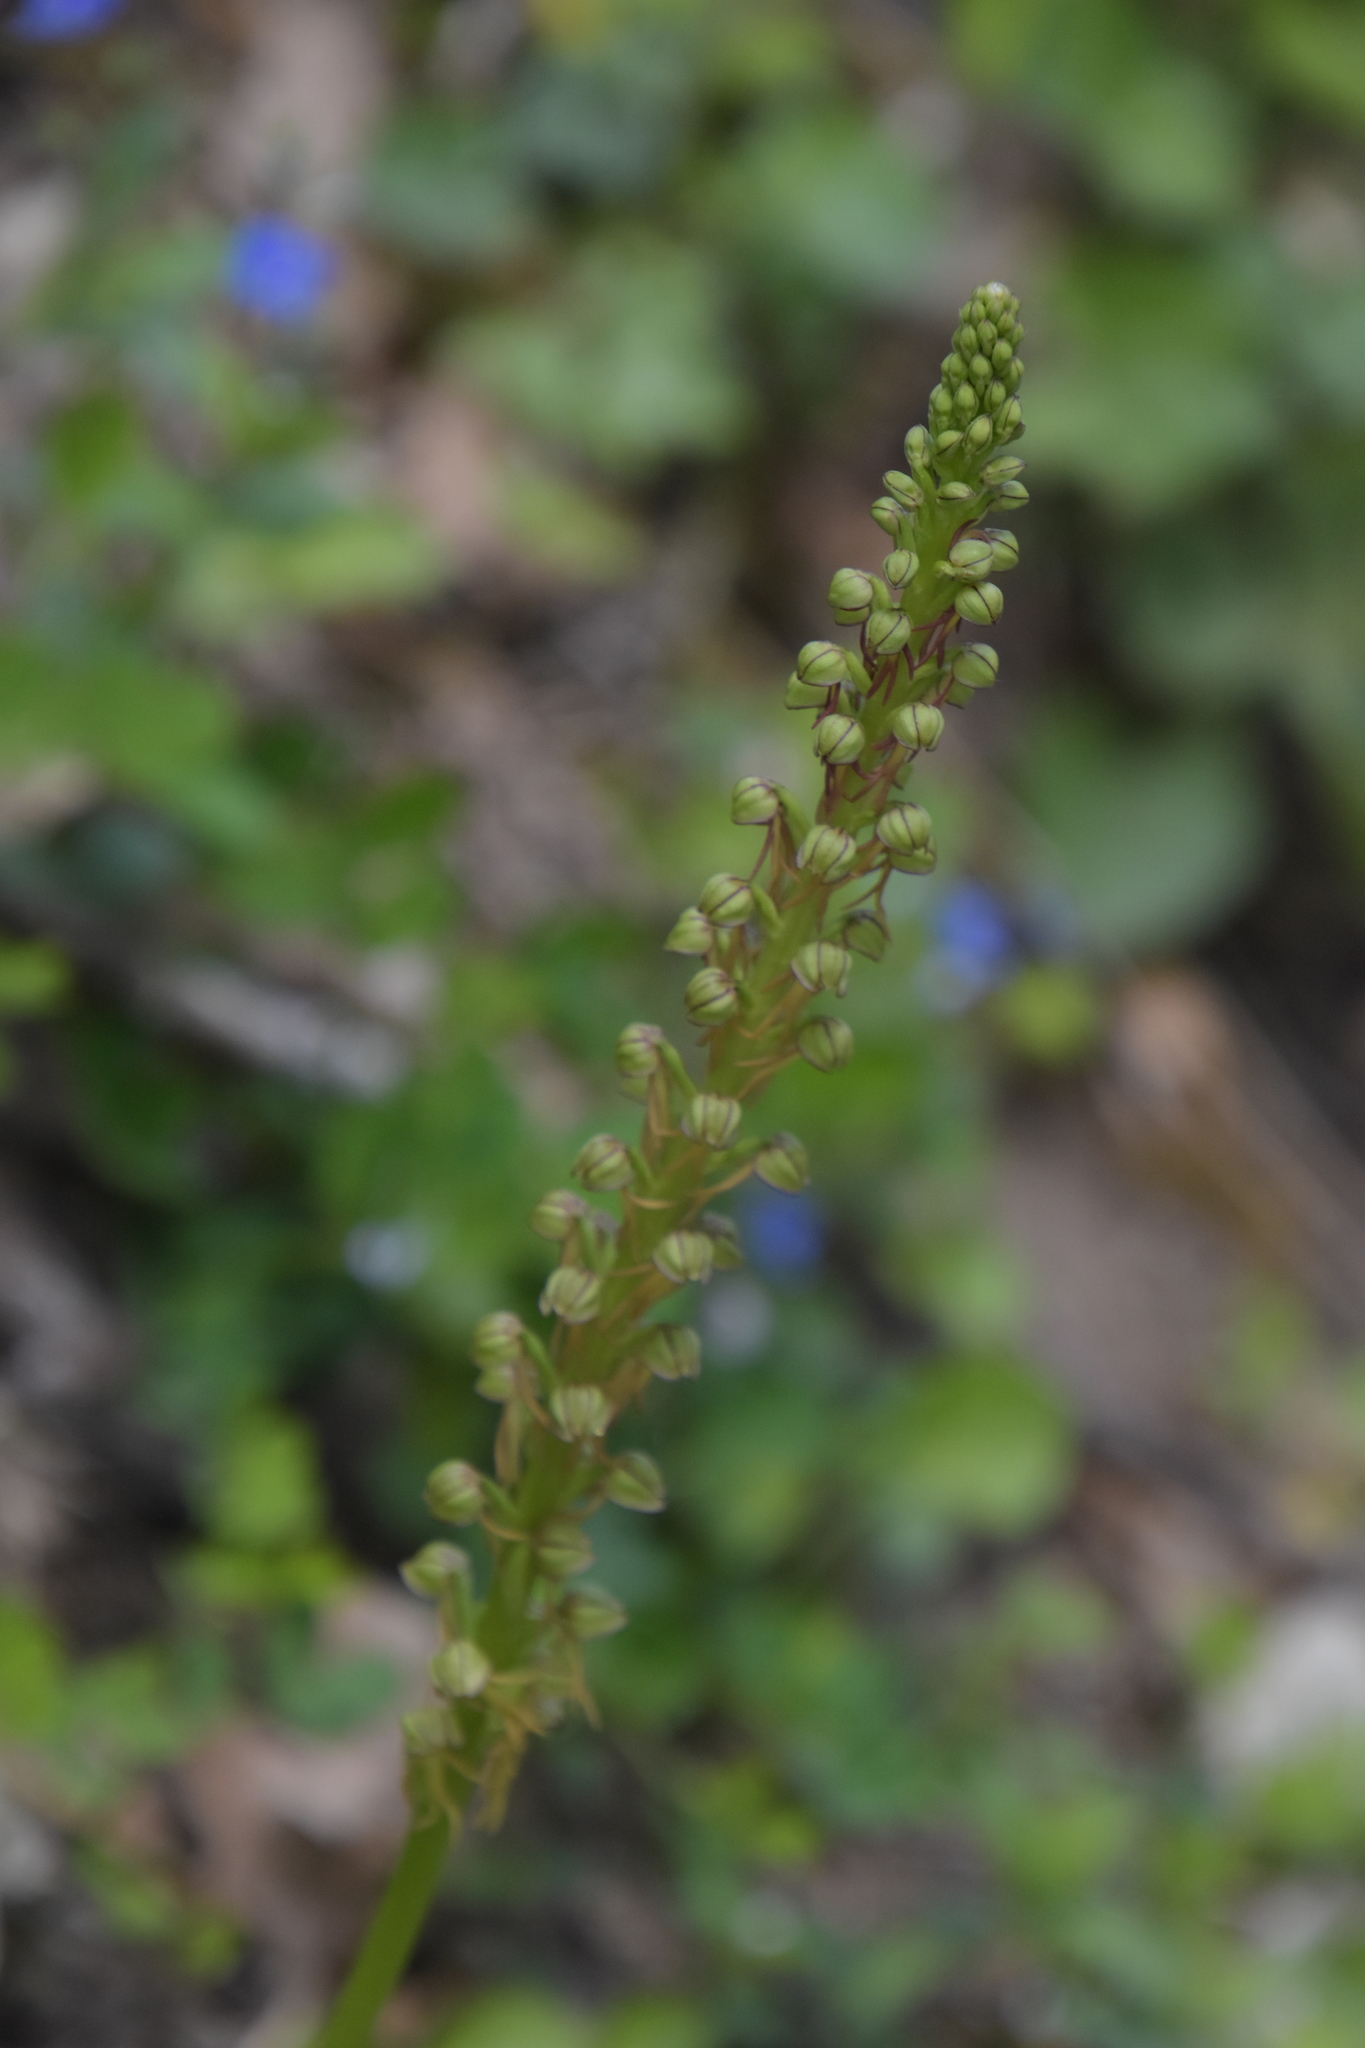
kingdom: Plantae
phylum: Tracheophyta
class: Liliopsida
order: Asparagales
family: Orchidaceae
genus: Orchis
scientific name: Orchis anthropophora
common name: Man orchid
